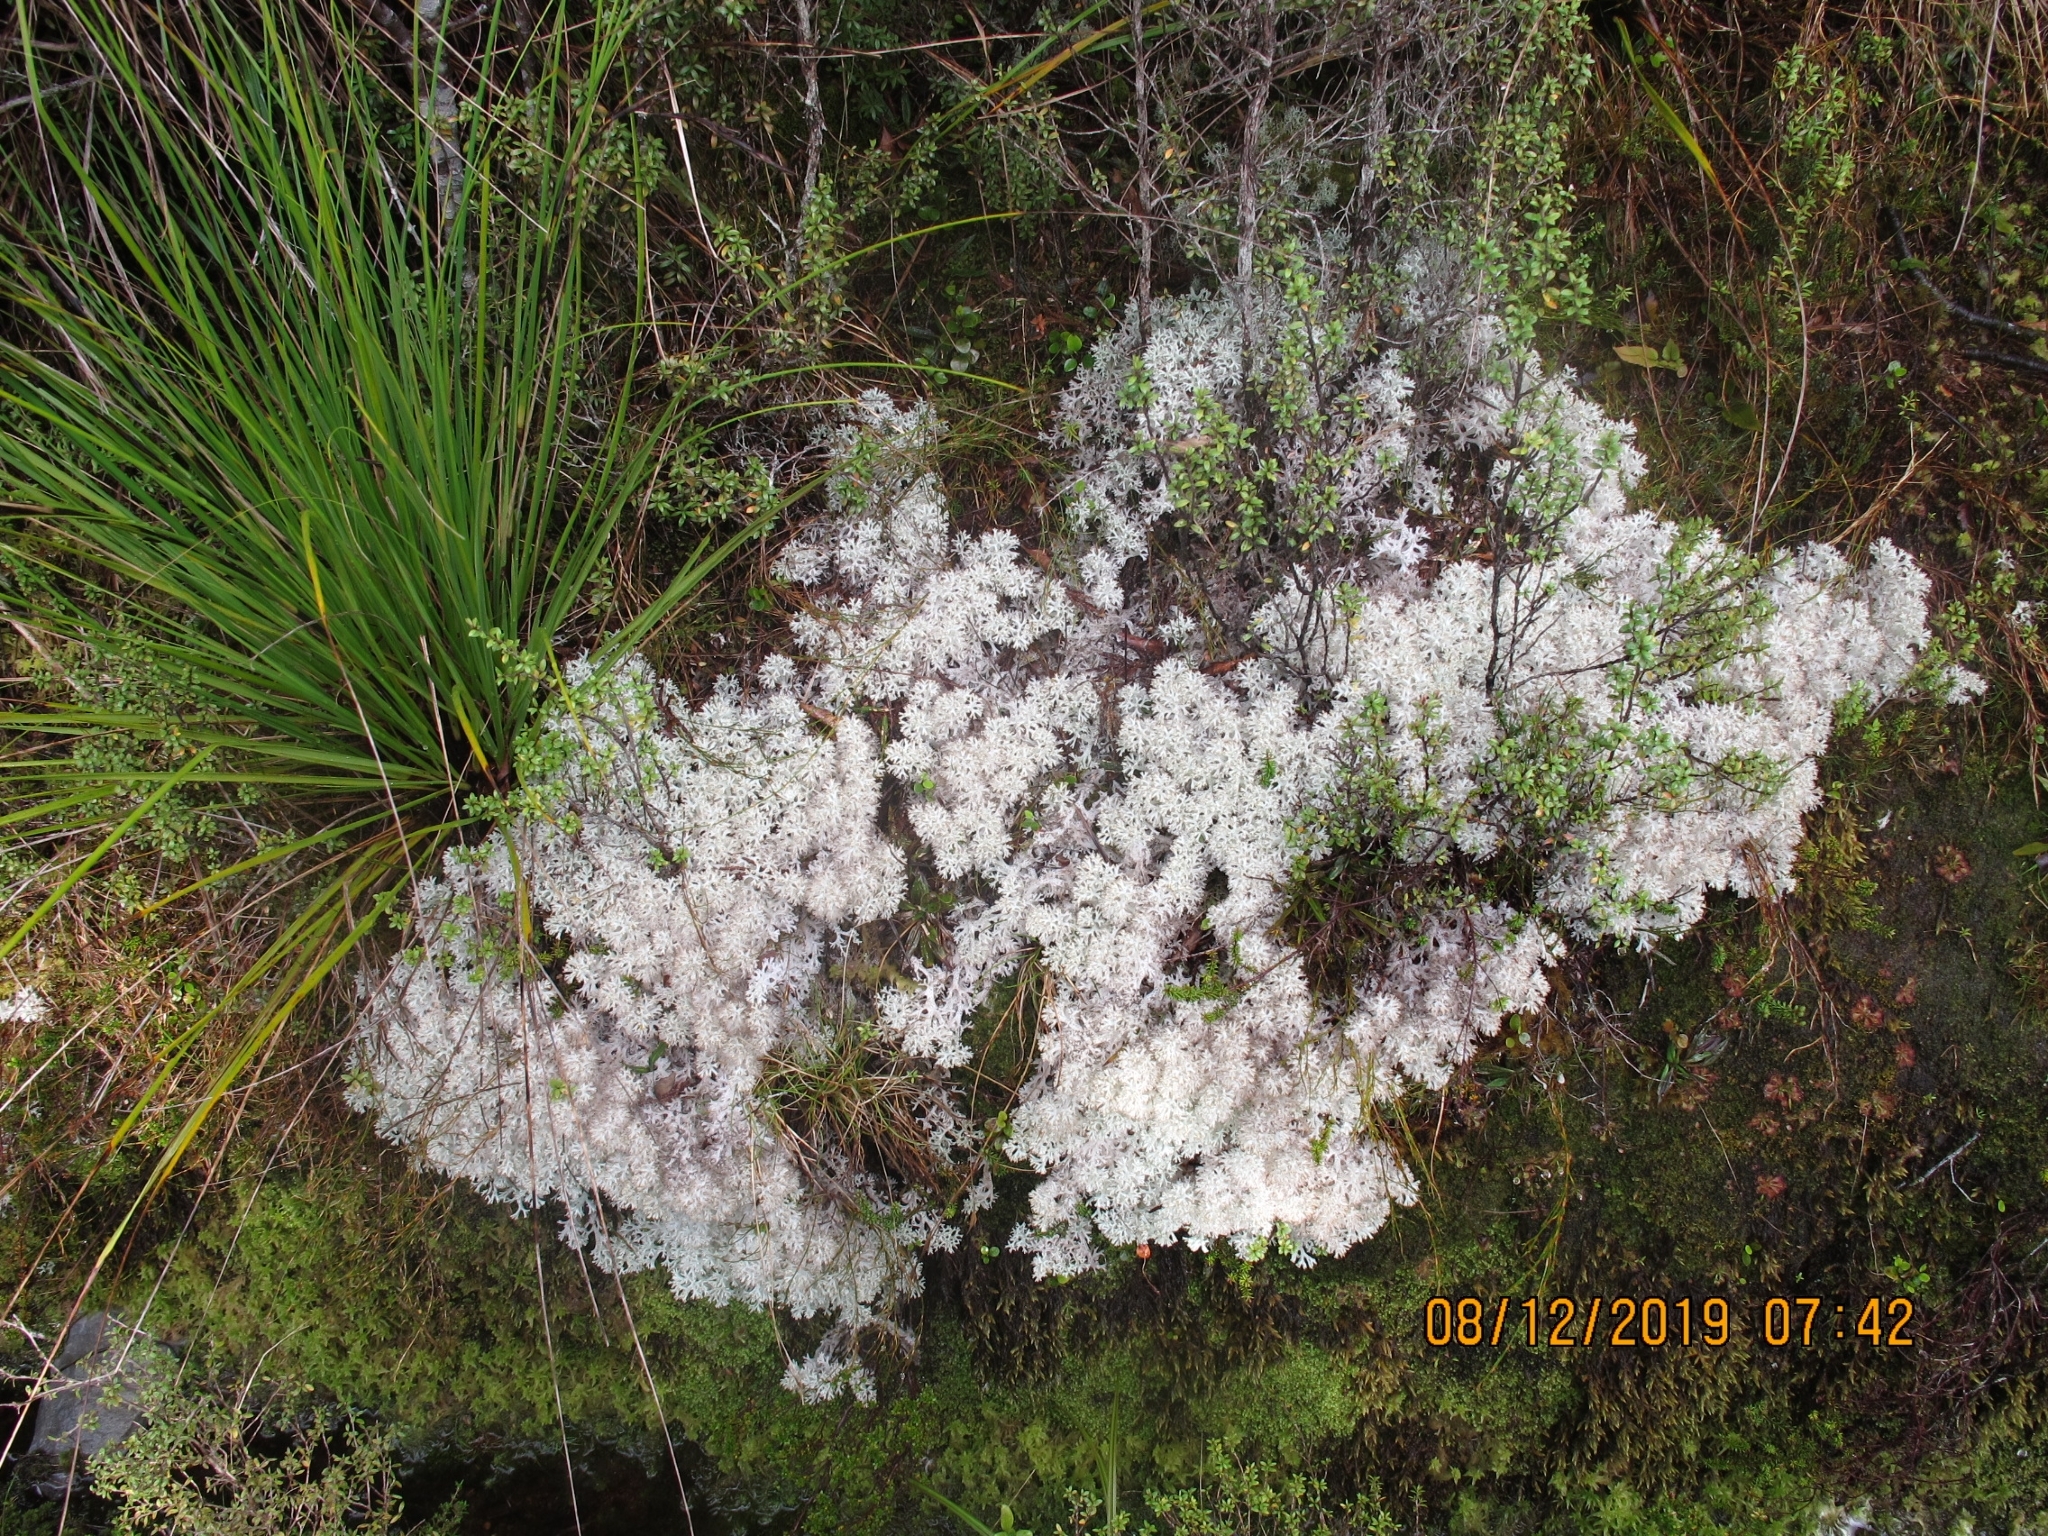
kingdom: Fungi
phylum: Ascomycota
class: Lecanoromycetes
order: Lecanorales
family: Cladoniaceae
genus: Pulchrocladia
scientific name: Pulchrocladia retipora
